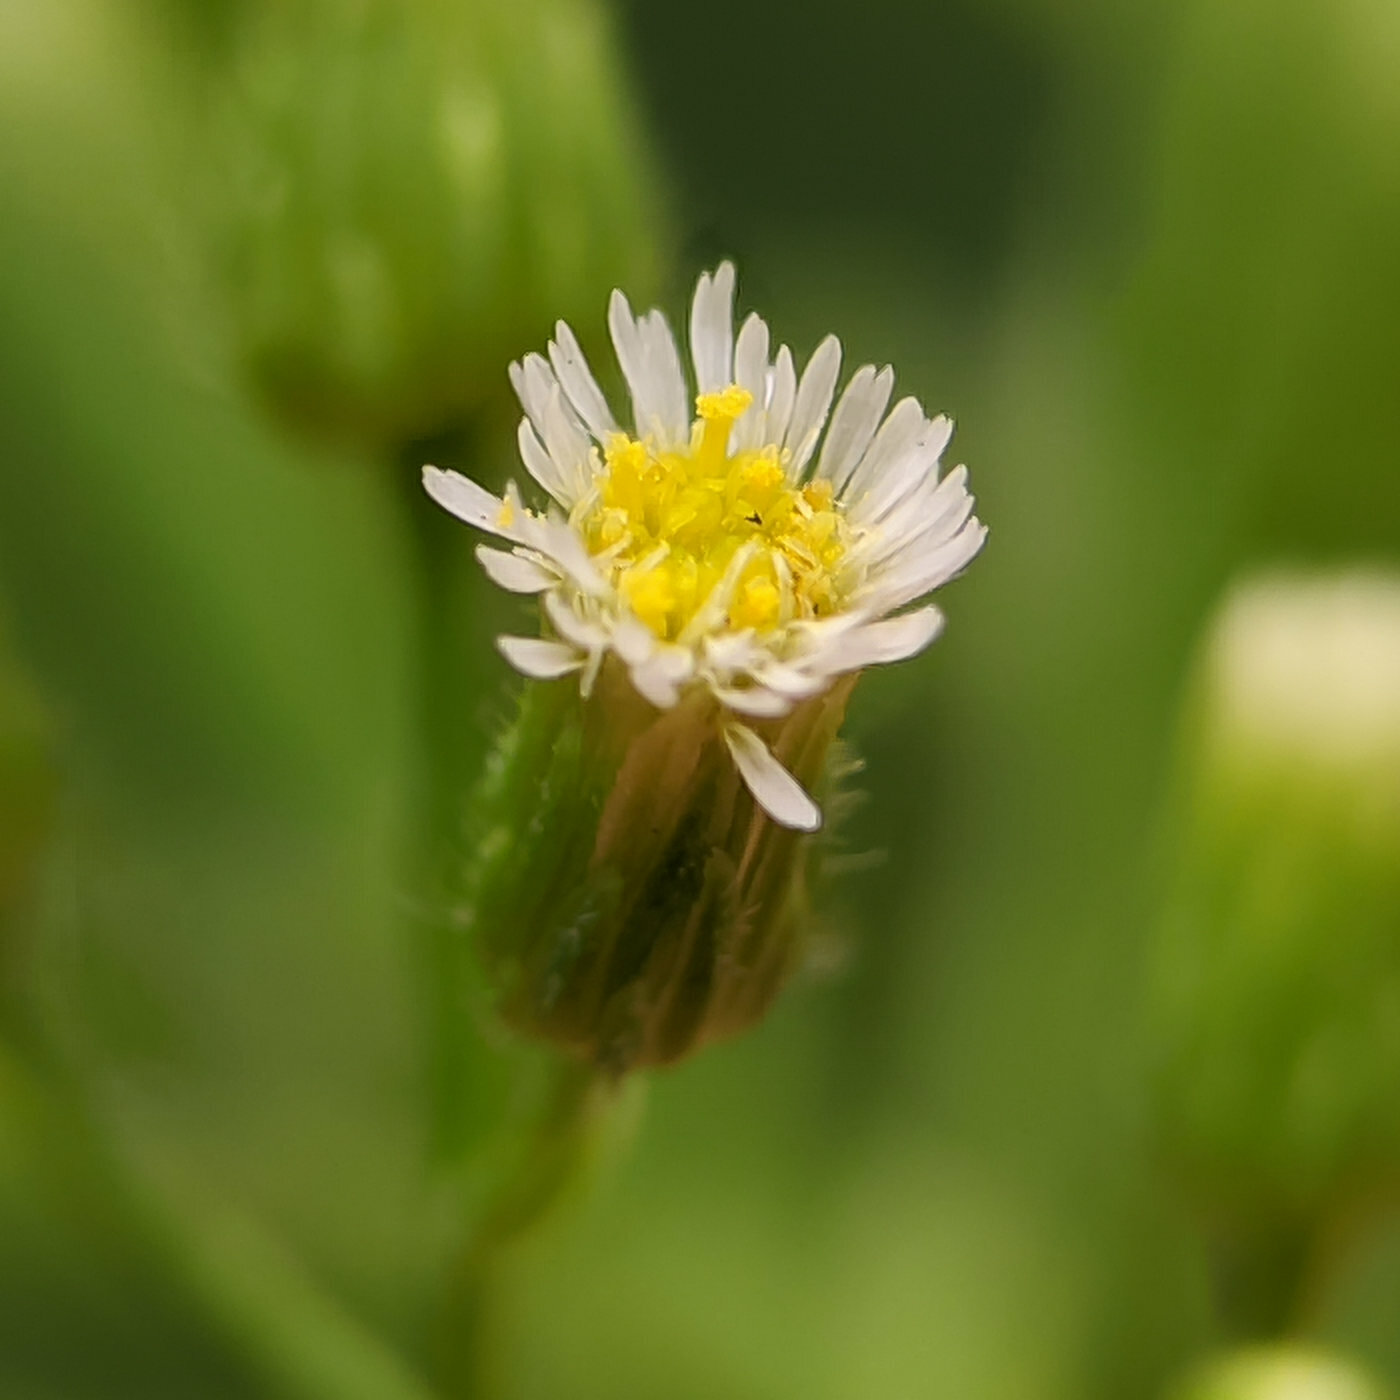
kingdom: Plantae
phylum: Tracheophyta
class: Magnoliopsida
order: Asterales
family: Asteraceae
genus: Erigeron
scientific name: Erigeron canadensis
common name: Canadian fleabane
